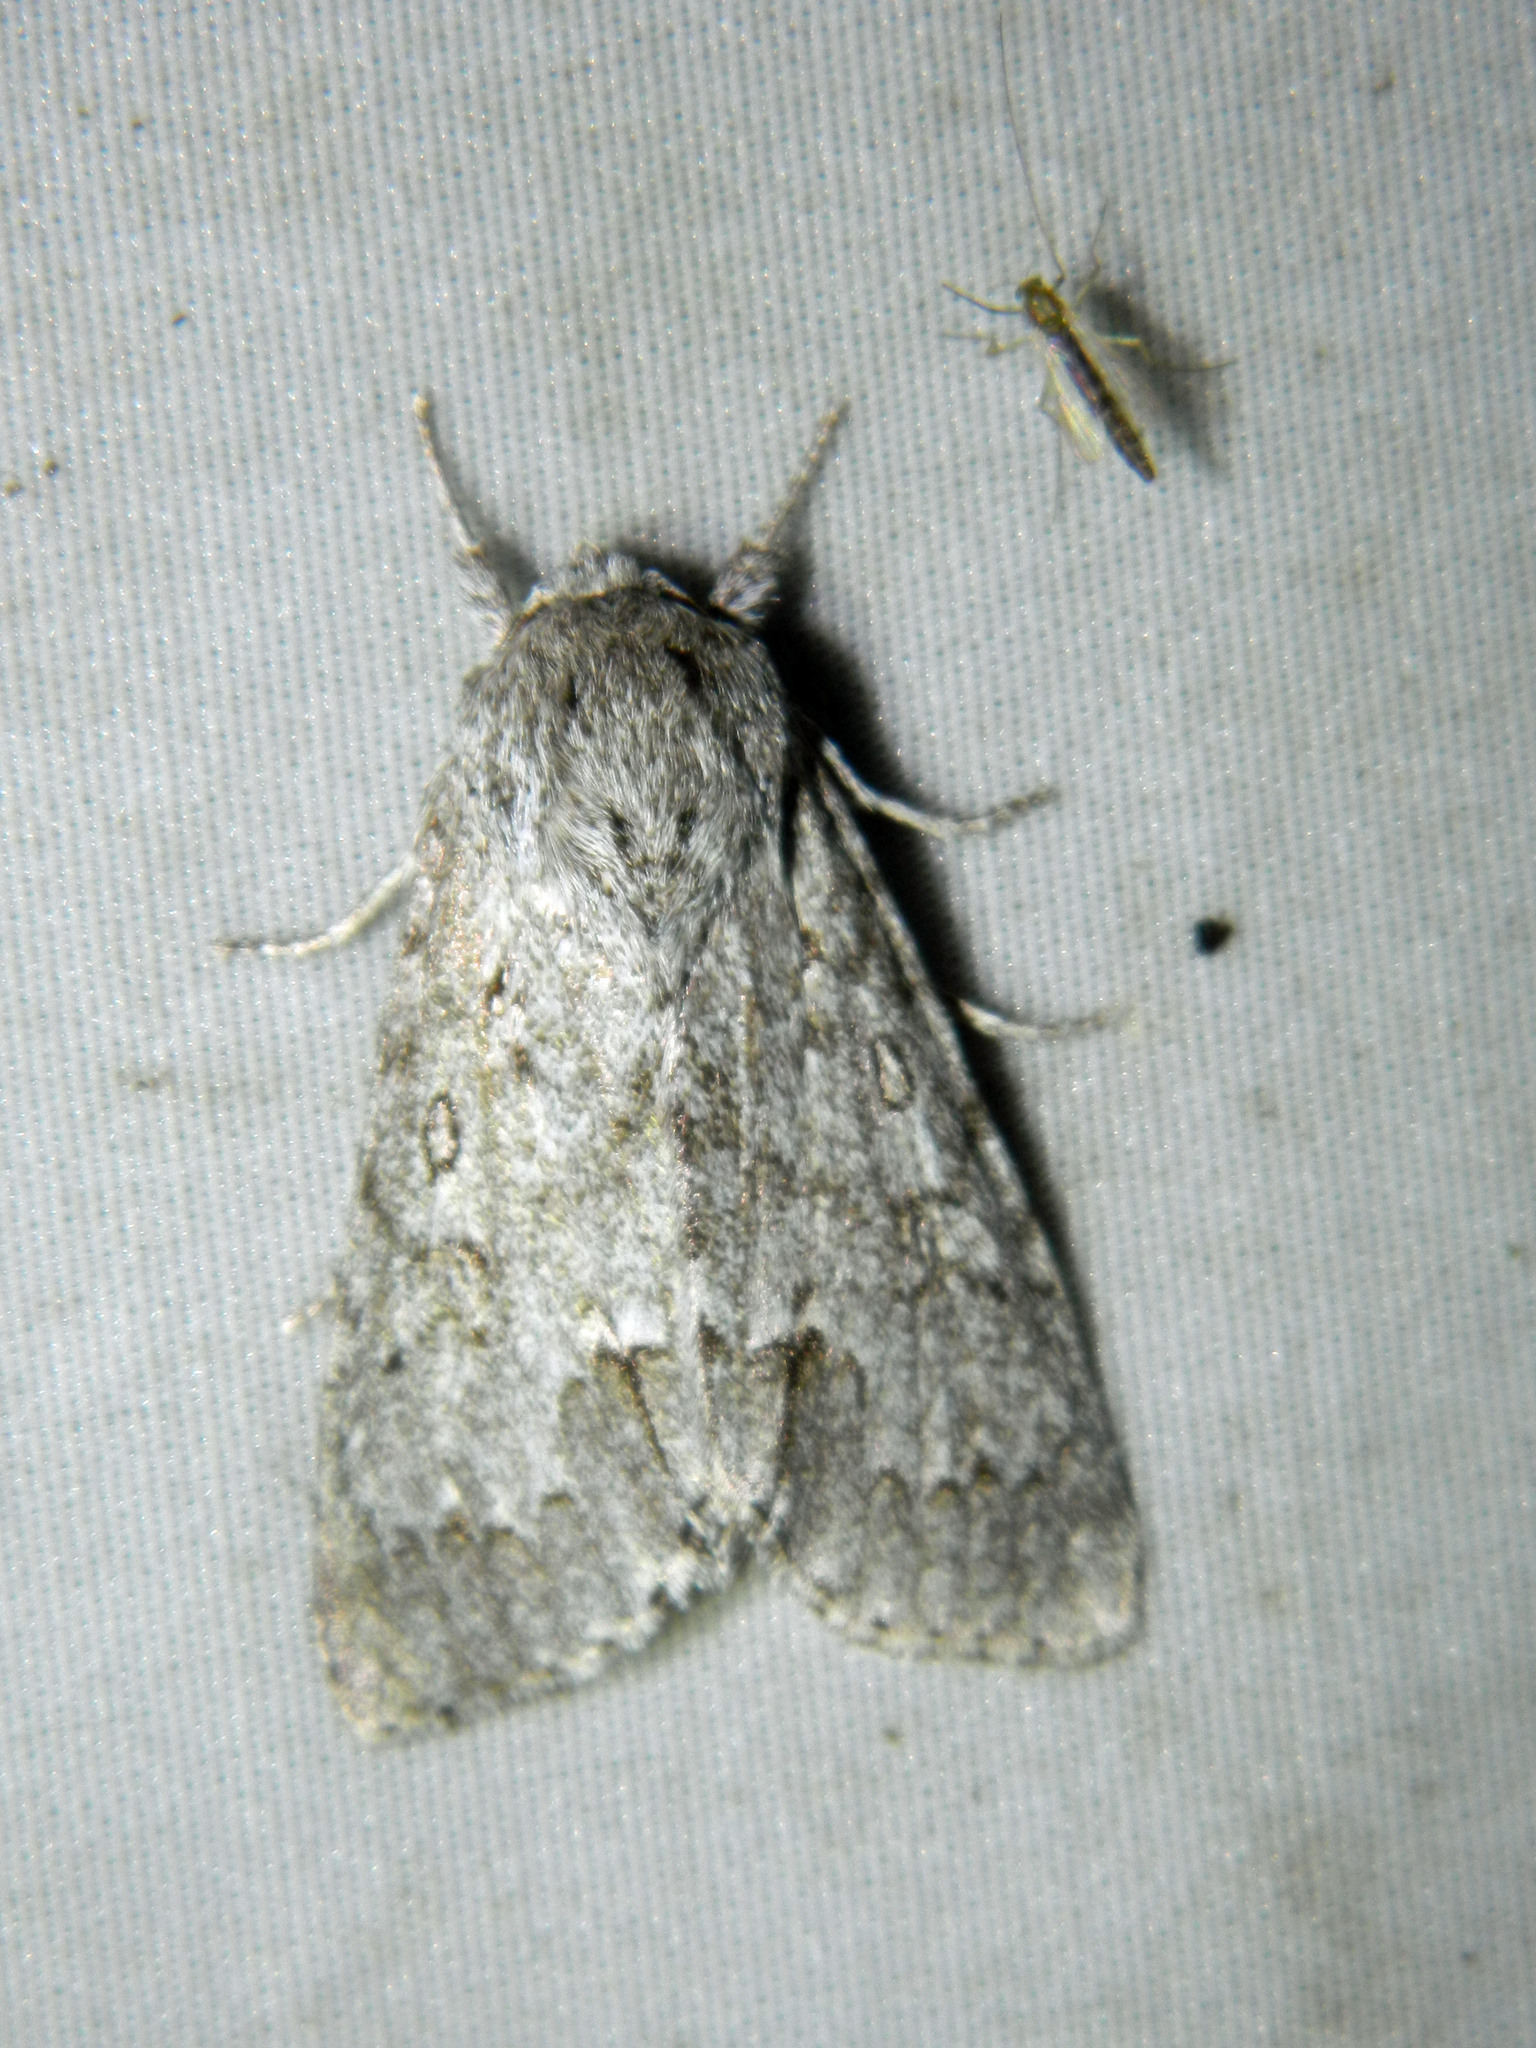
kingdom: Animalia
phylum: Arthropoda
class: Insecta
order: Lepidoptera
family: Noctuidae
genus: Acronicta
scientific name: Acronicta insita
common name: Large gray dagger
